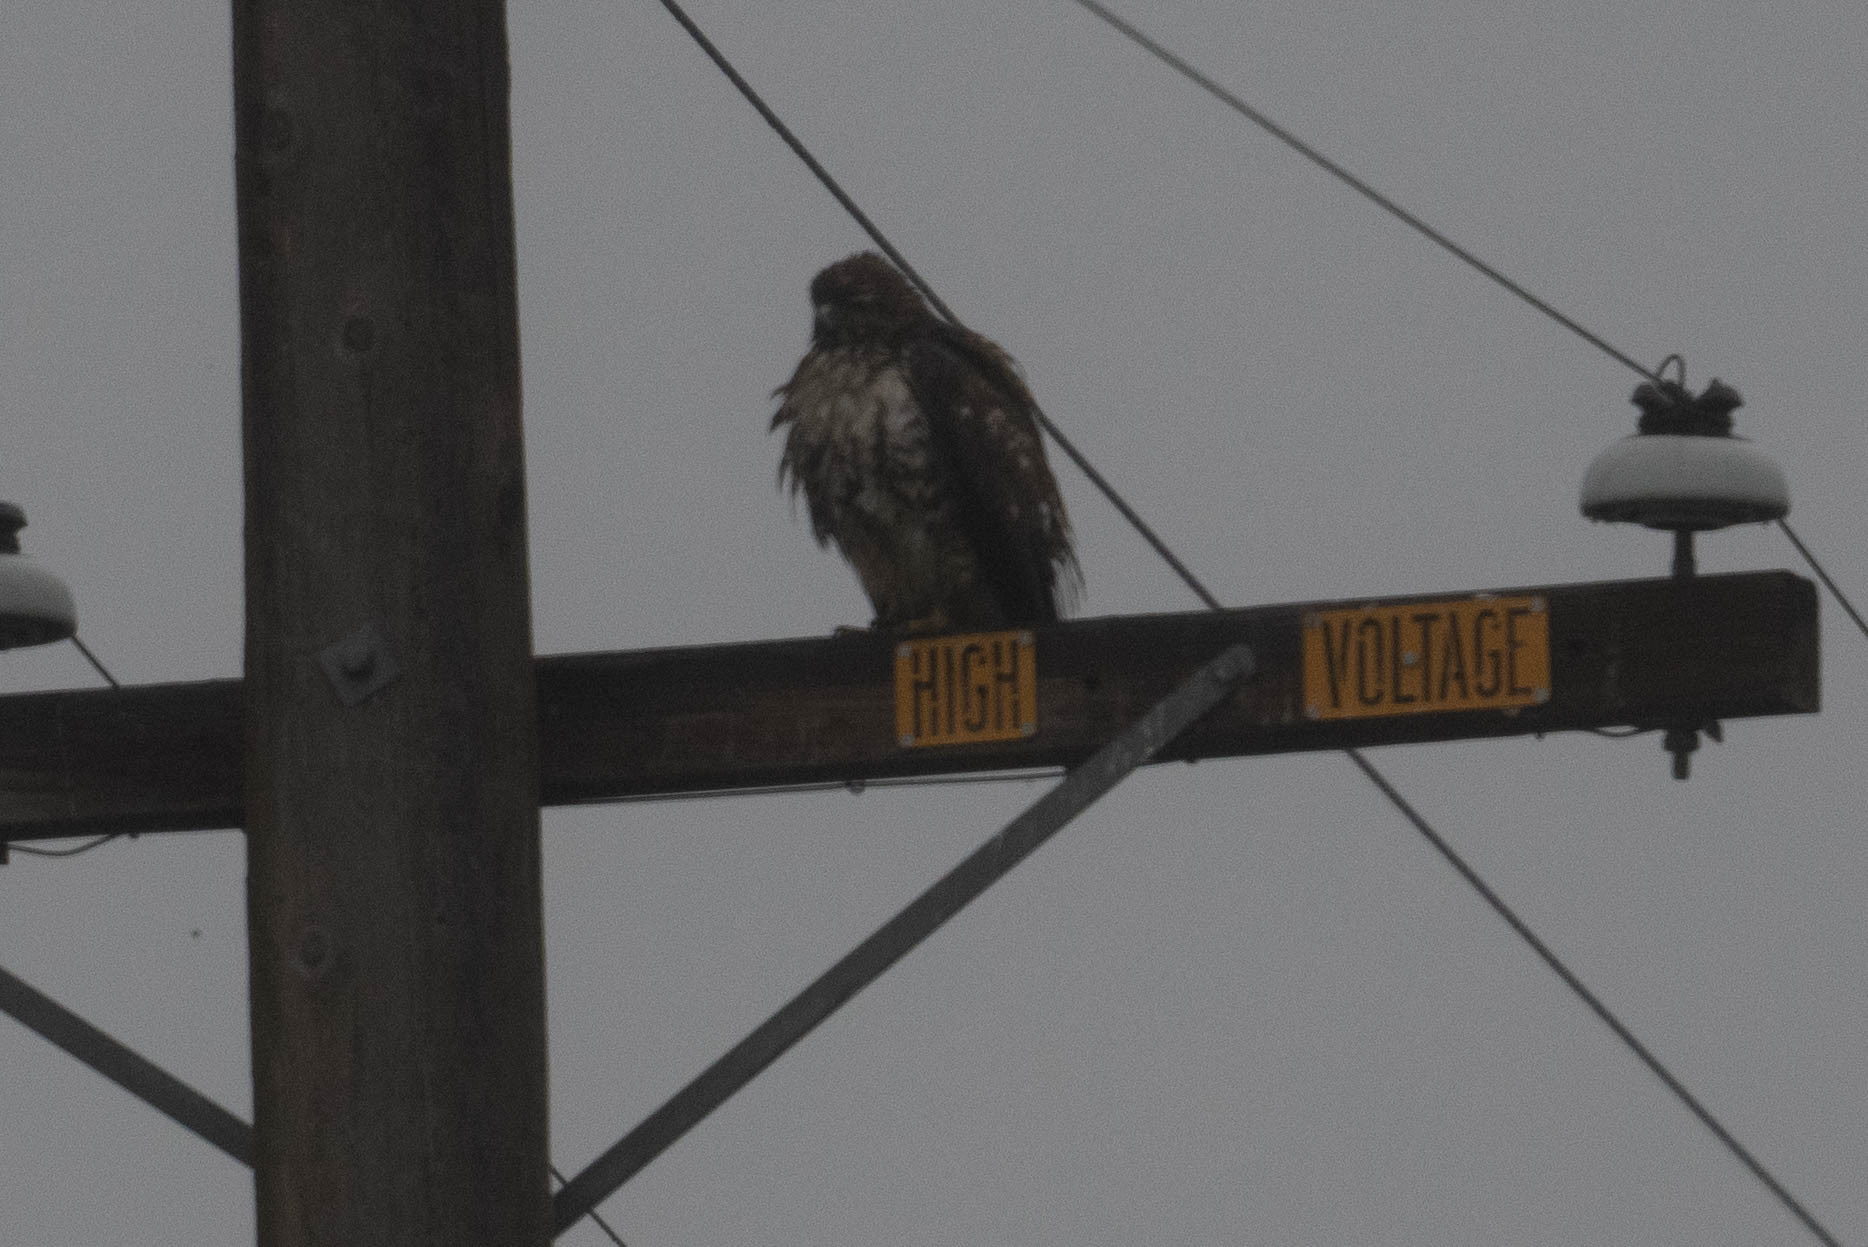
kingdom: Animalia
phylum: Chordata
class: Aves
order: Accipitriformes
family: Accipitridae
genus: Buteo
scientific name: Buteo jamaicensis
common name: Red-tailed hawk
